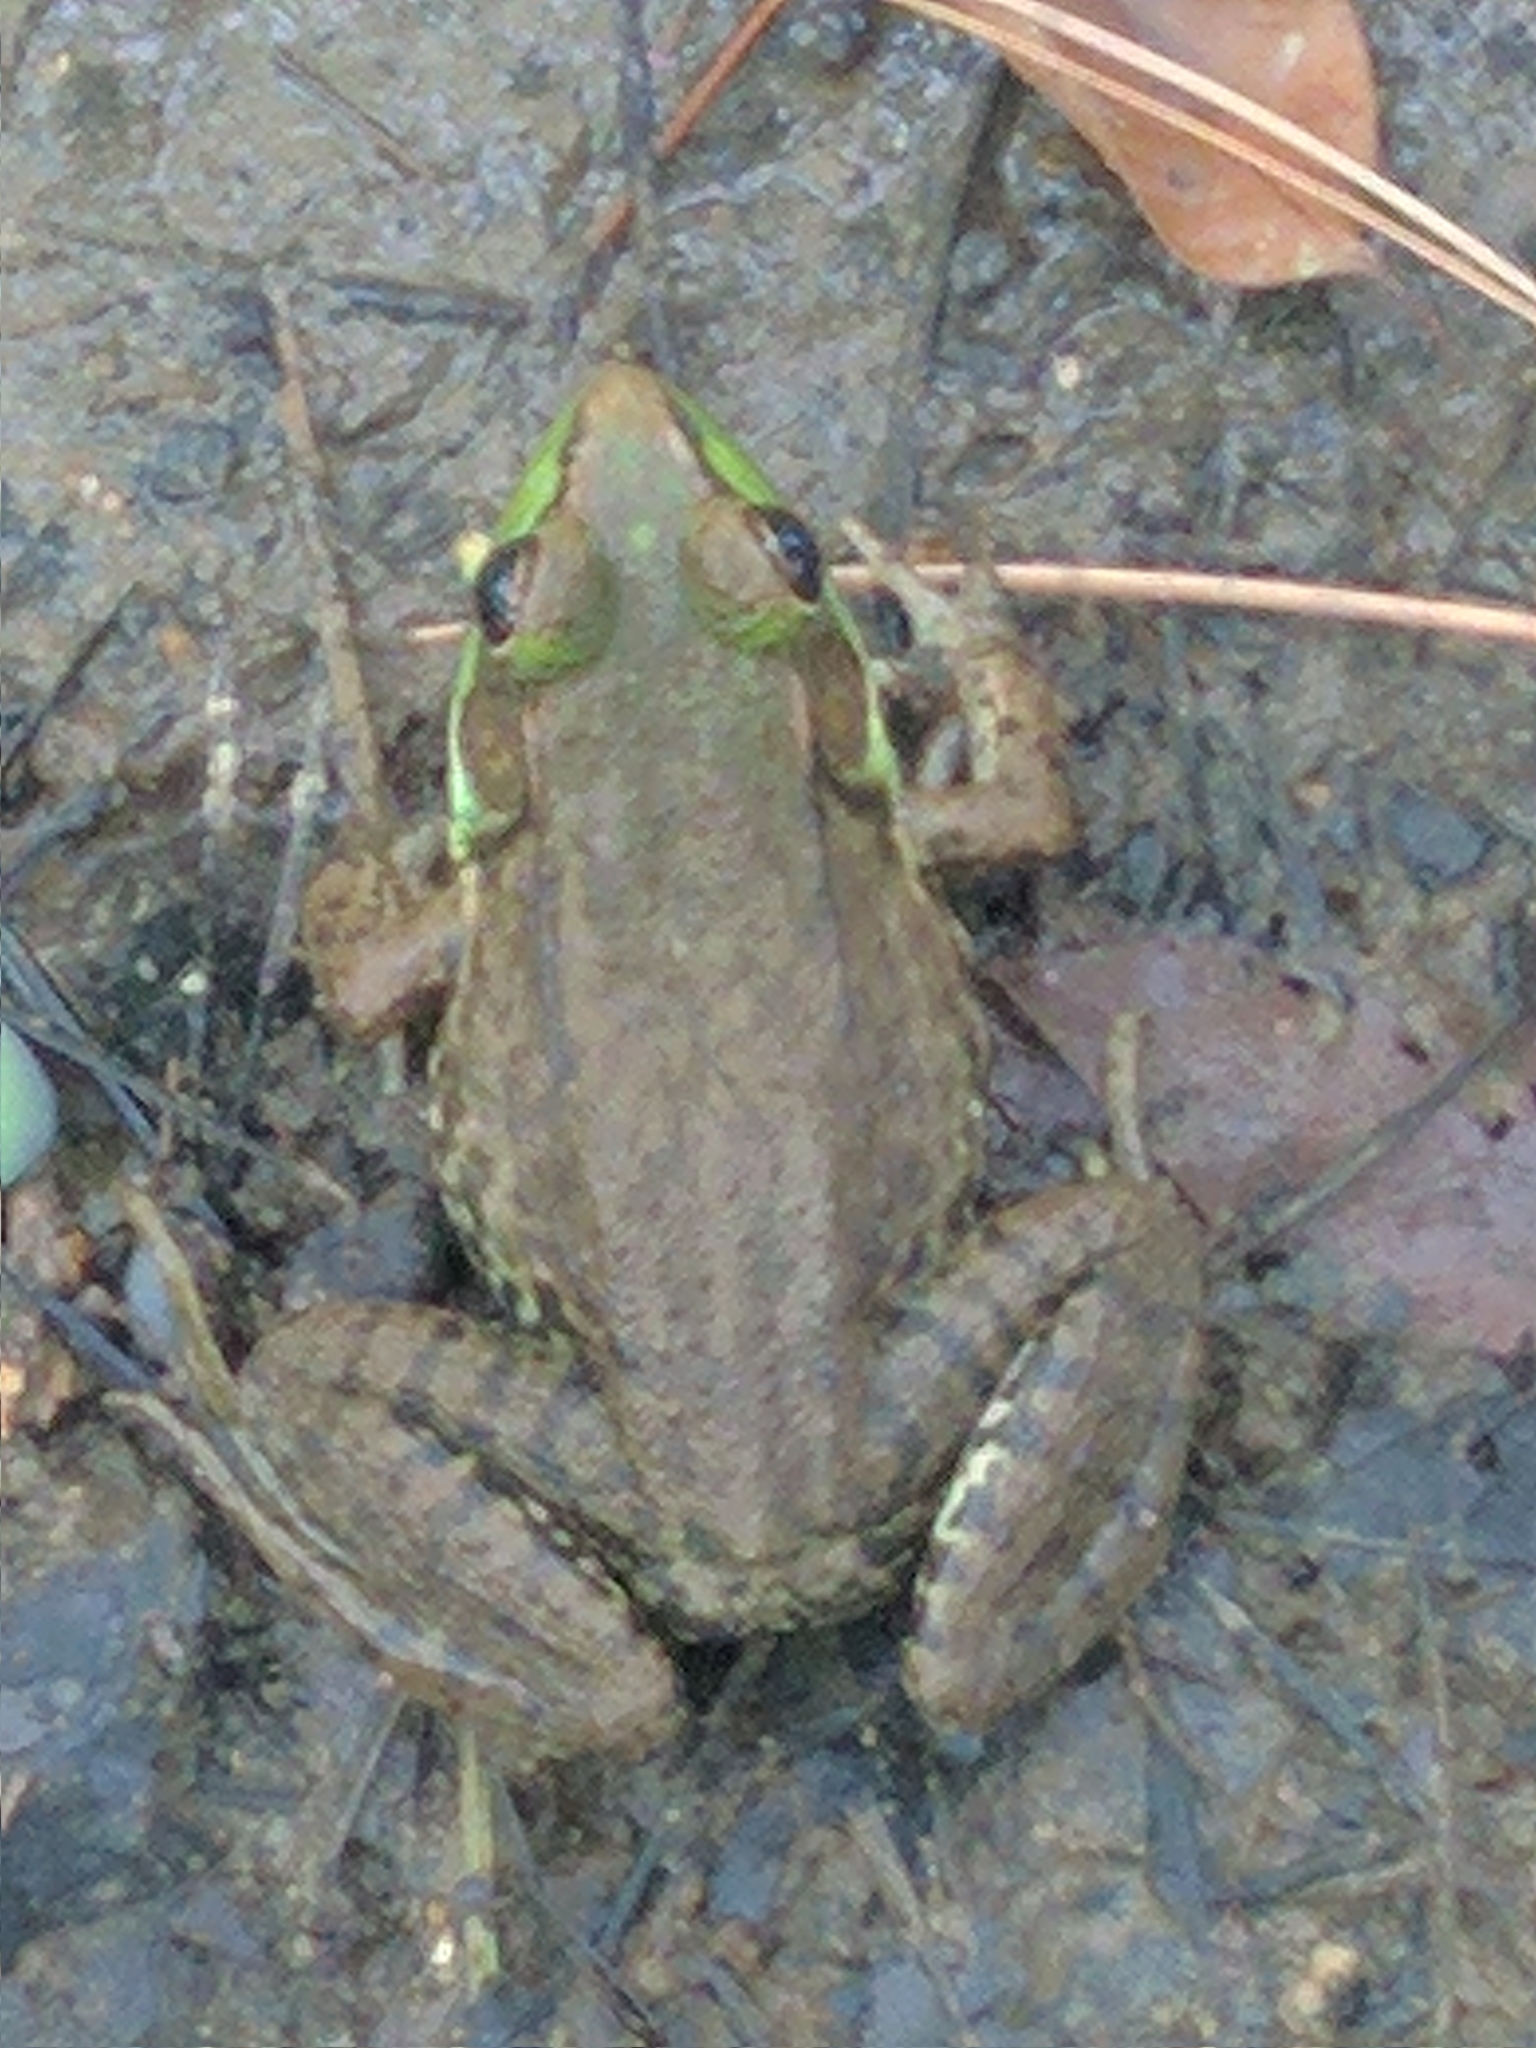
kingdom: Animalia
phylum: Chordata
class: Amphibia
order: Anura
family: Ranidae
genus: Lithobates
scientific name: Lithobates clamitans
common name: Green frog
